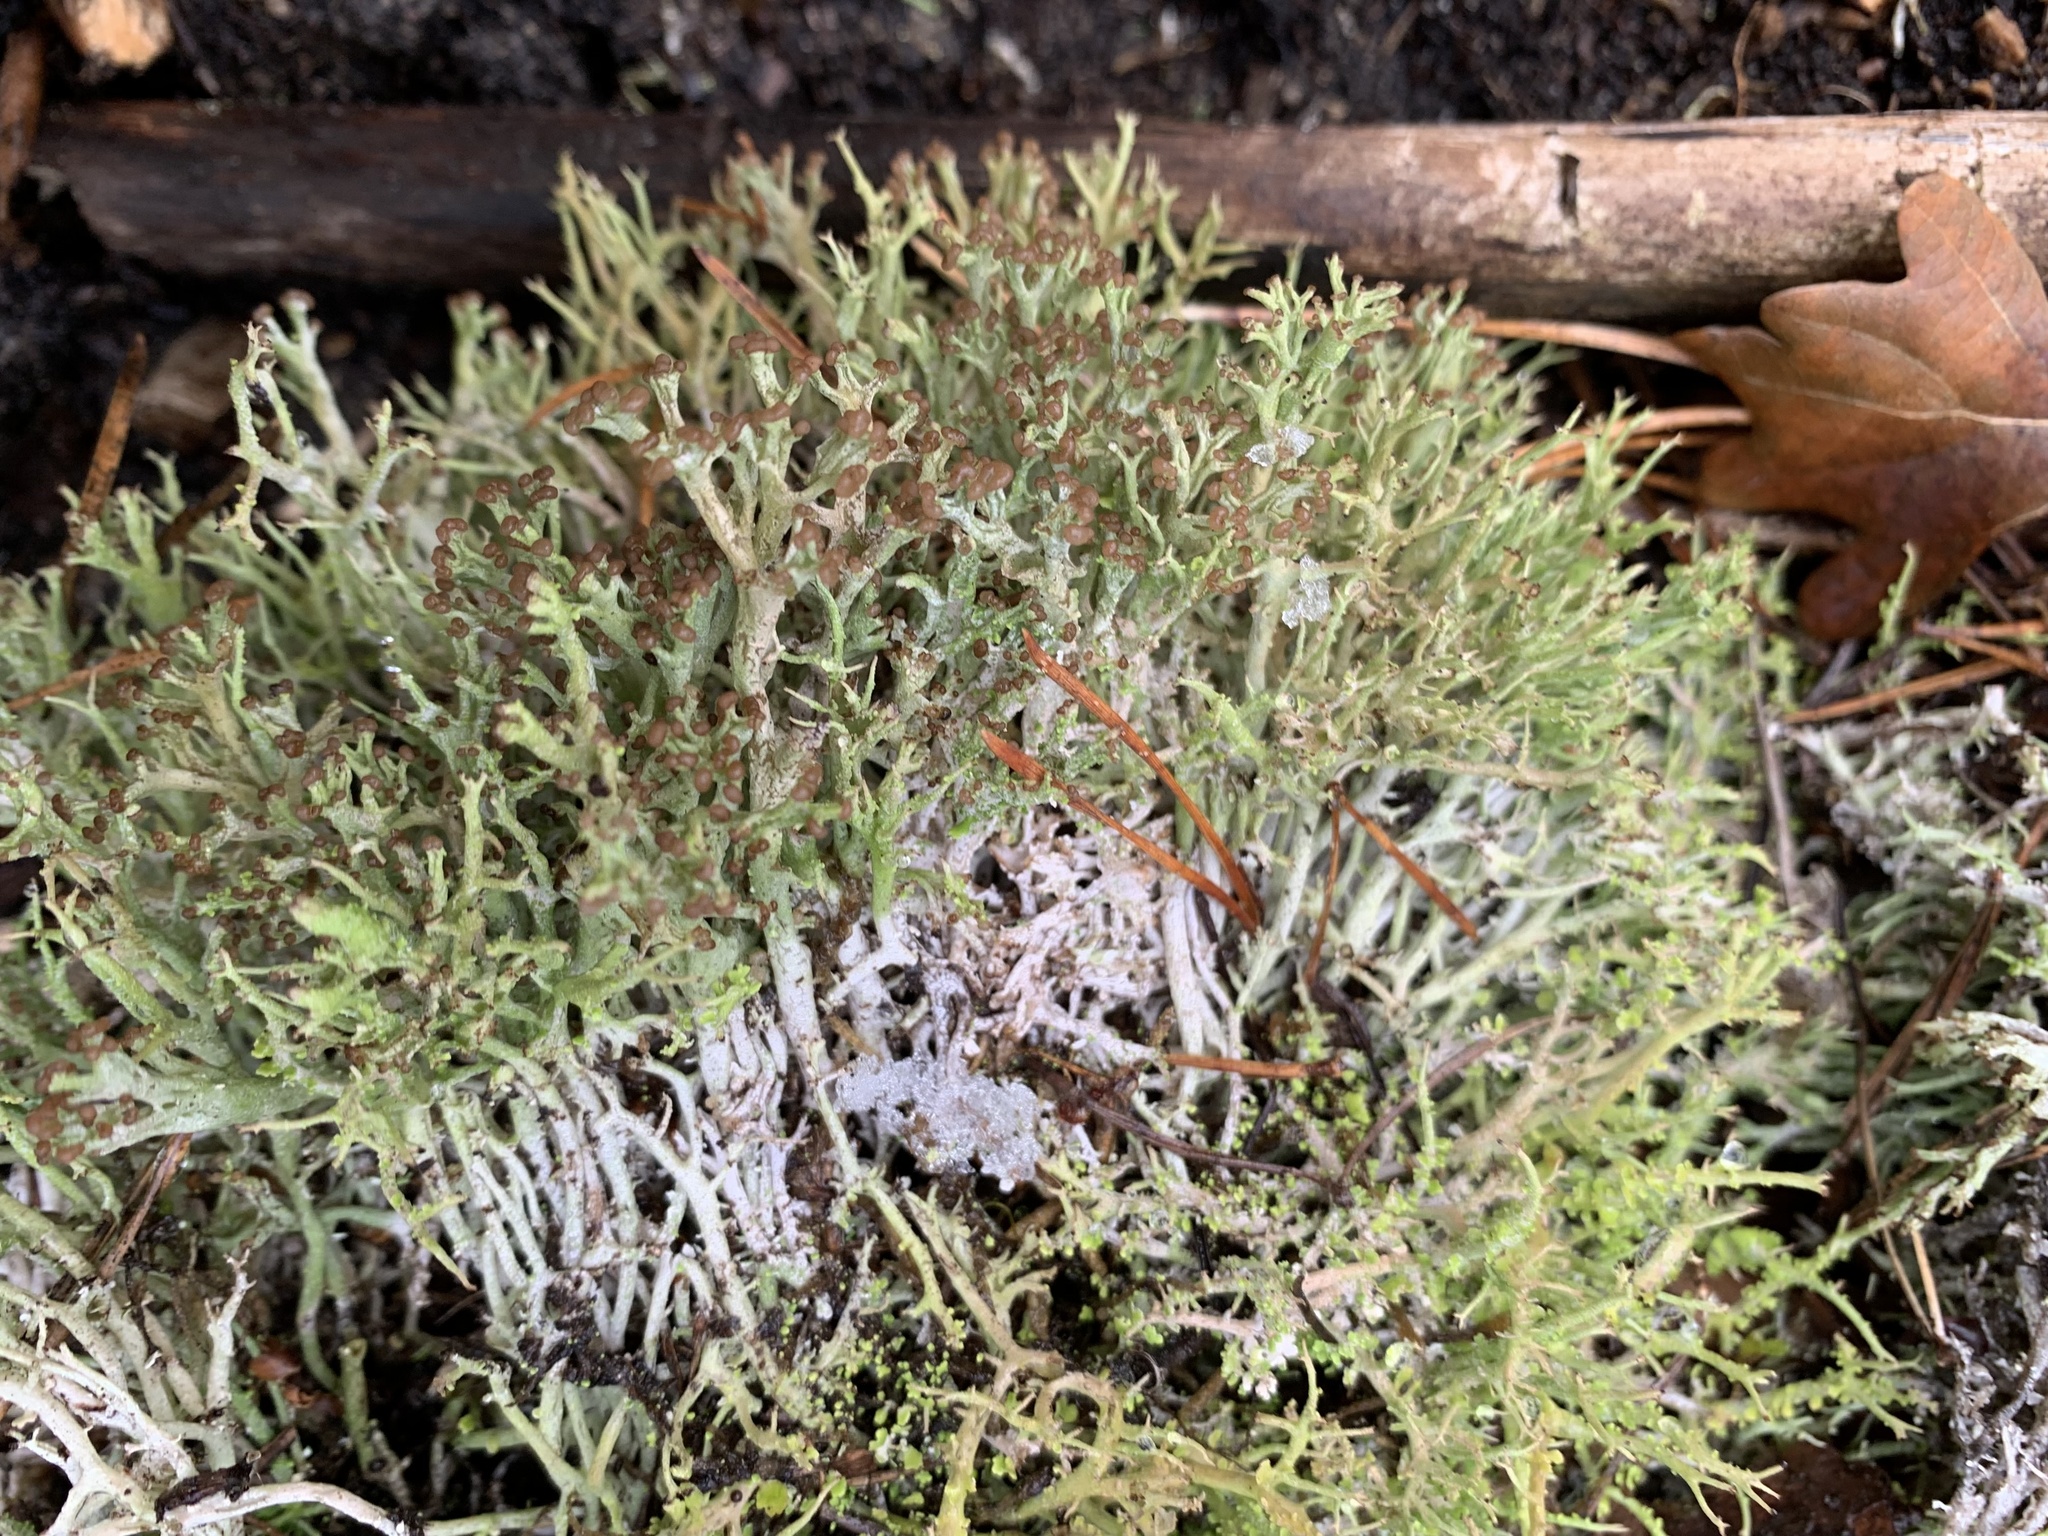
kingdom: Fungi
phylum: Ascomycota
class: Lecanoromycetes
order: Lecanorales
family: Cladoniaceae
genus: Cladonia
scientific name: Cladonia furcata
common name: Many-forked cladonia
